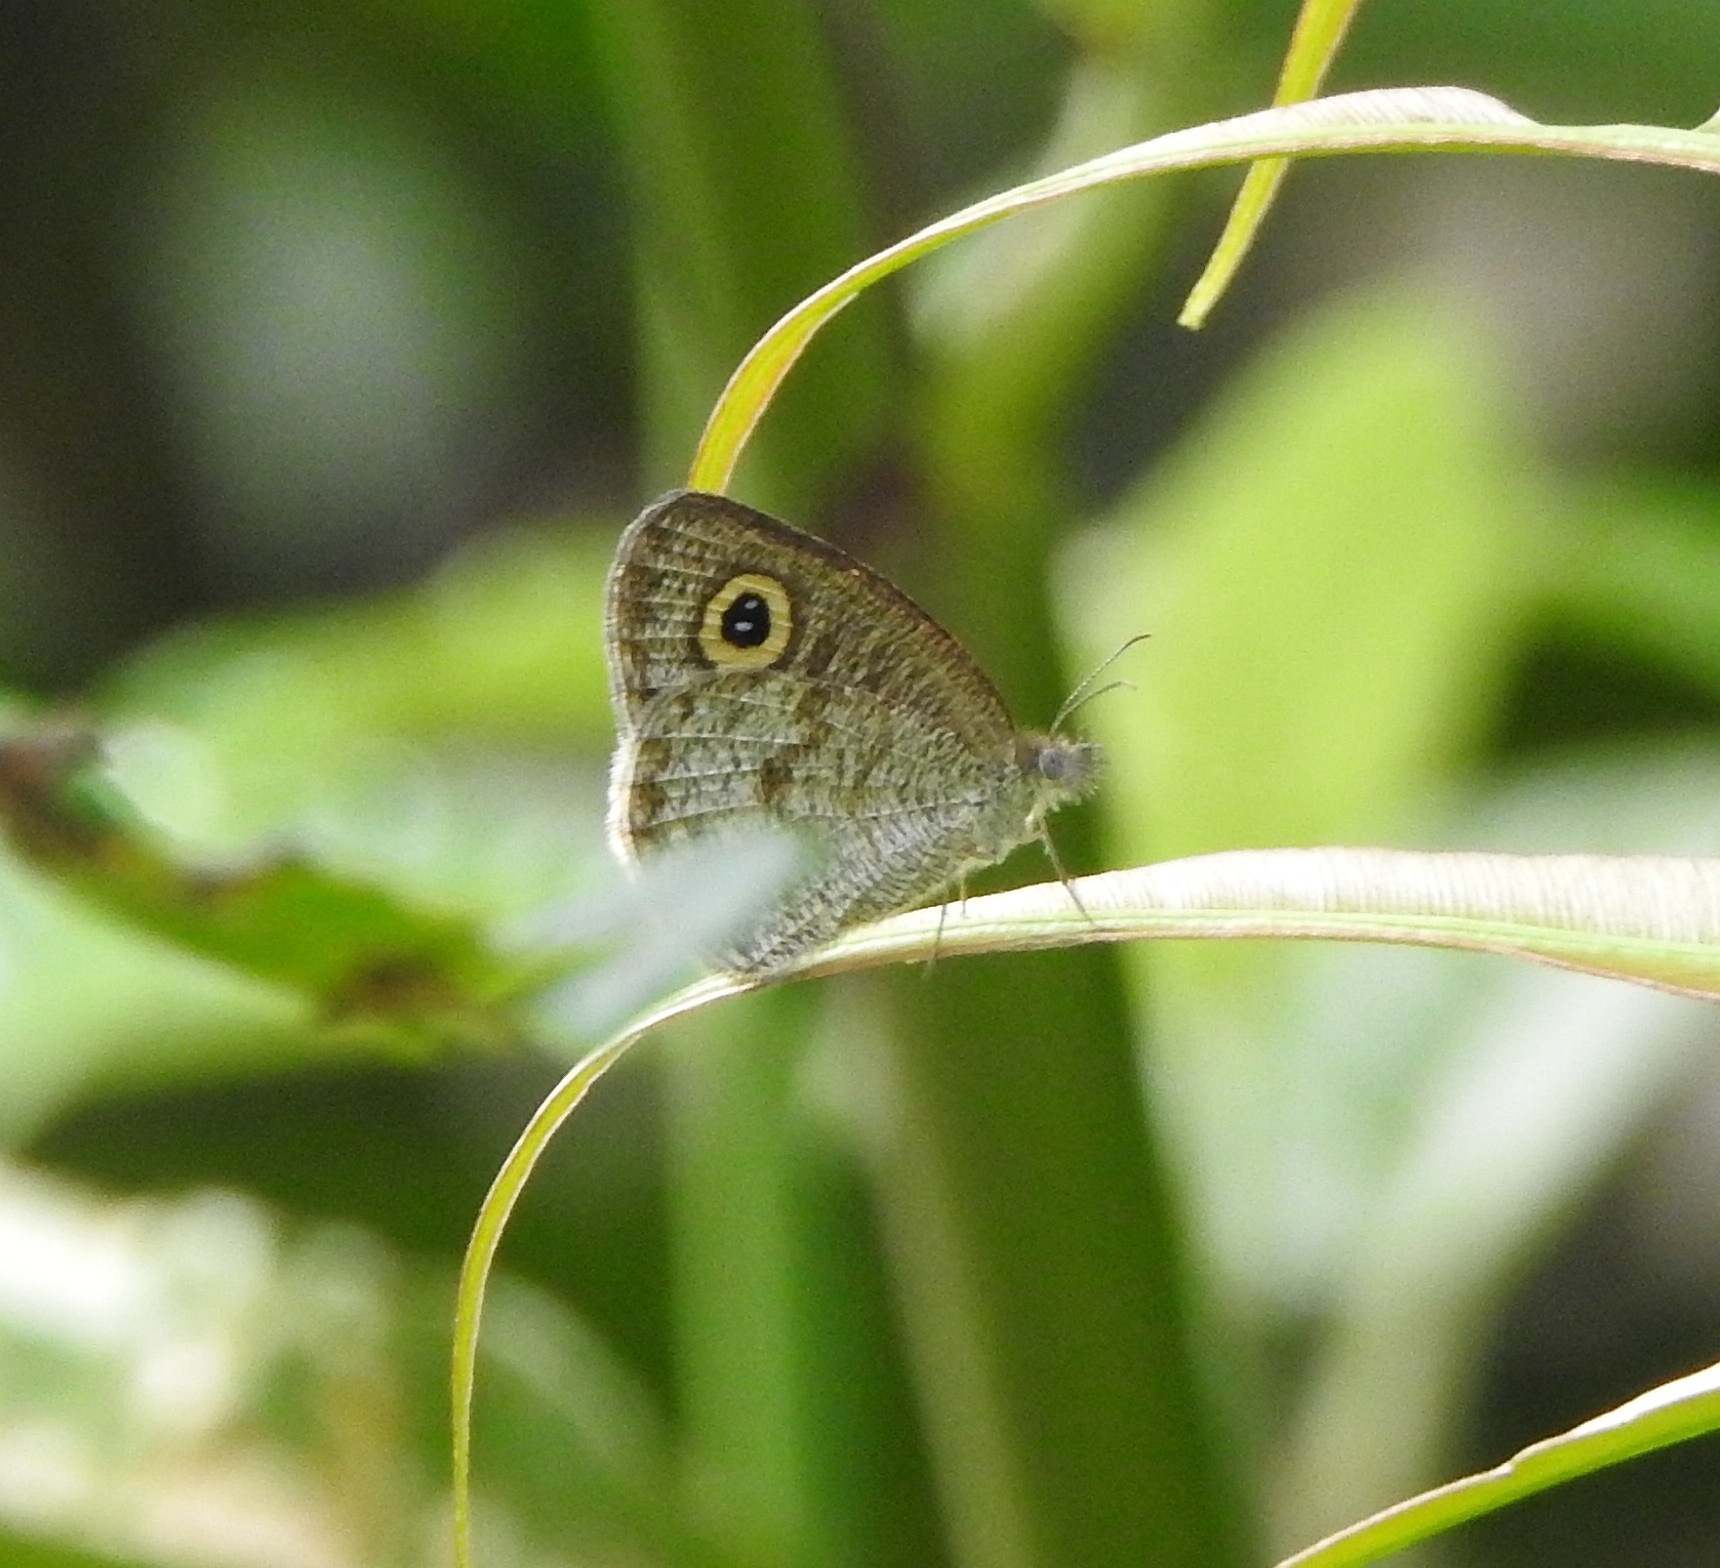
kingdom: Animalia
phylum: Arthropoda
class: Insecta
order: Lepidoptera
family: Nymphalidae
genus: Ypthima
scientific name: Ypthima huebneri
